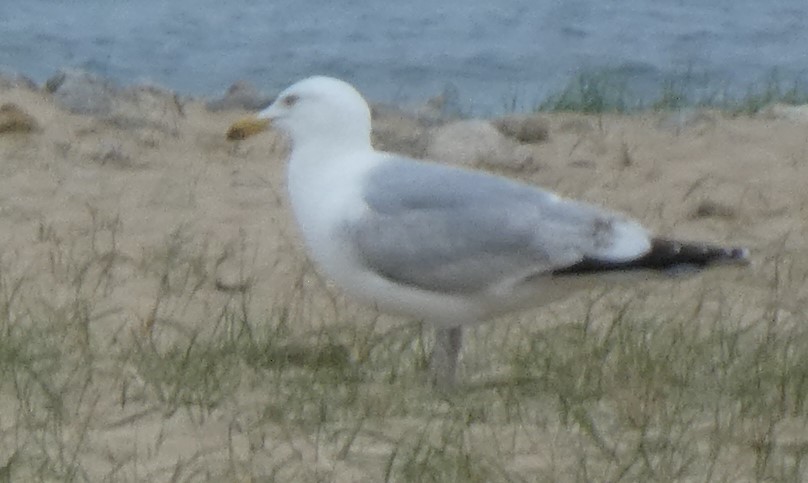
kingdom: Animalia
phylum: Chordata
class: Aves
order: Charadriiformes
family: Laridae
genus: Larus
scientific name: Larus argentatus
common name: Herring gull
